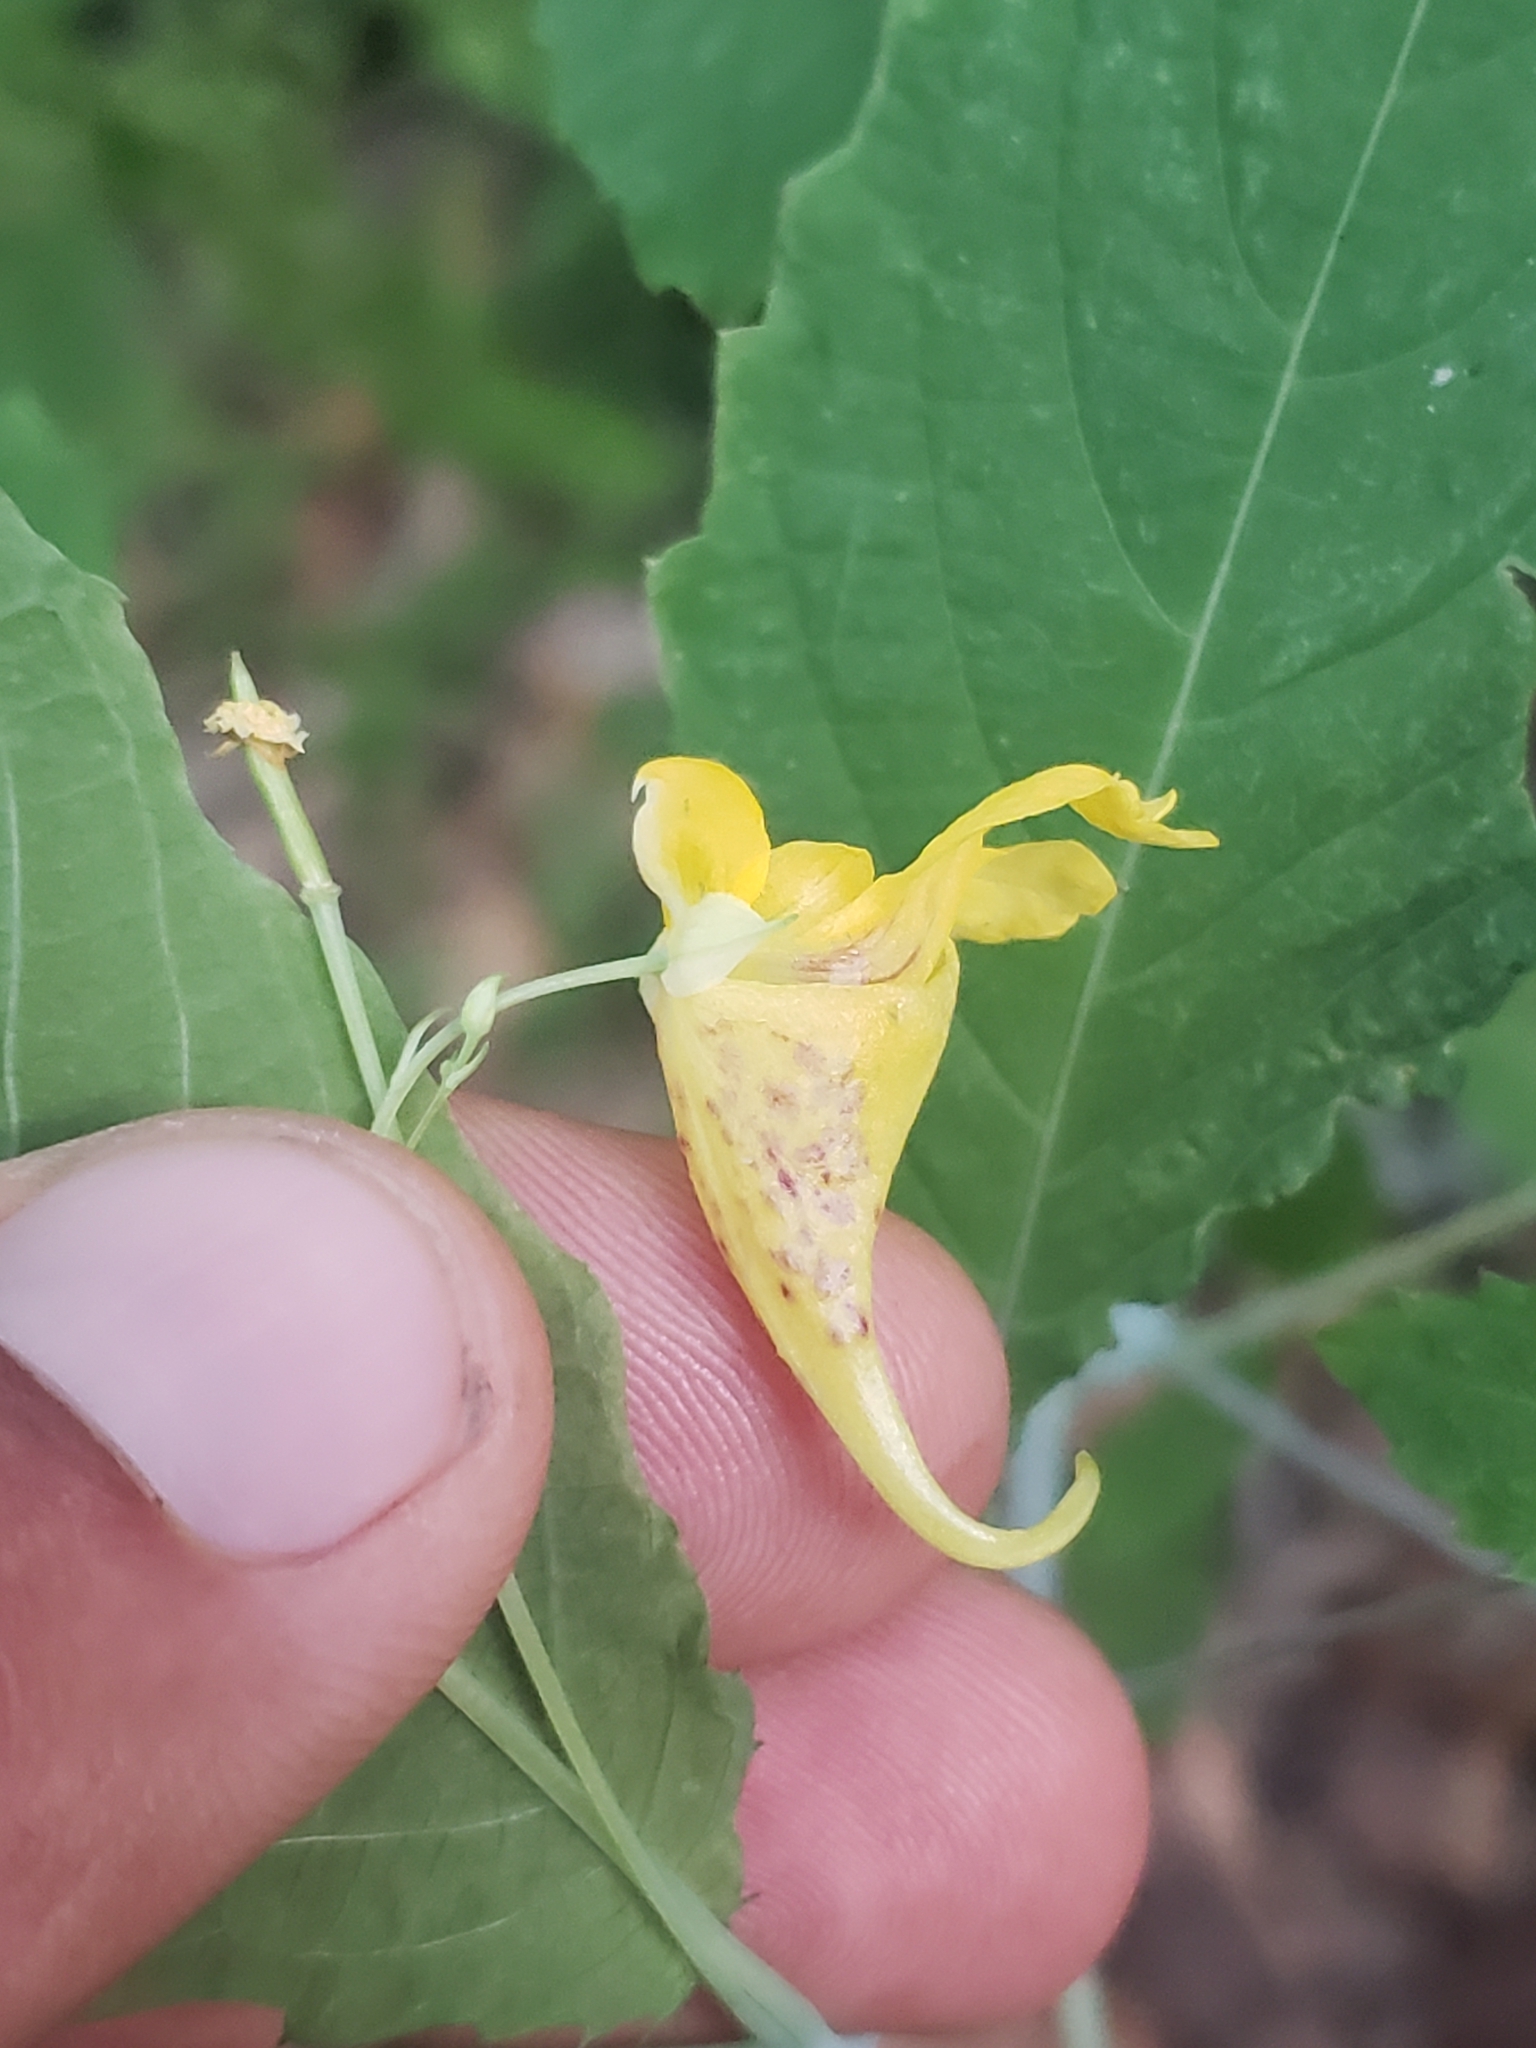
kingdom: Plantae
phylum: Tracheophyta
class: Magnoliopsida
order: Ericales
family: Balsaminaceae
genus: Impatiens
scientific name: Impatiens noli-tangere
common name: Touch-me-not balsam
